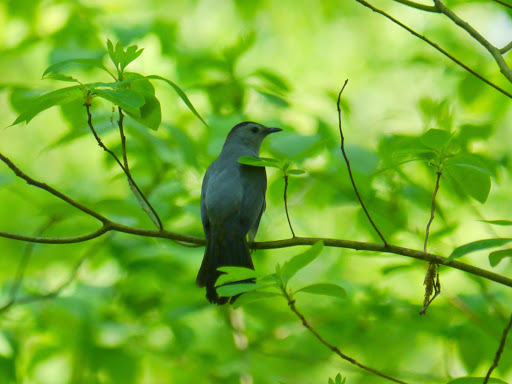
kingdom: Animalia
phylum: Chordata
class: Aves
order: Passeriformes
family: Mimidae
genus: Dumetella
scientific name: Dumetella carolinensis
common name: Gray catbird
